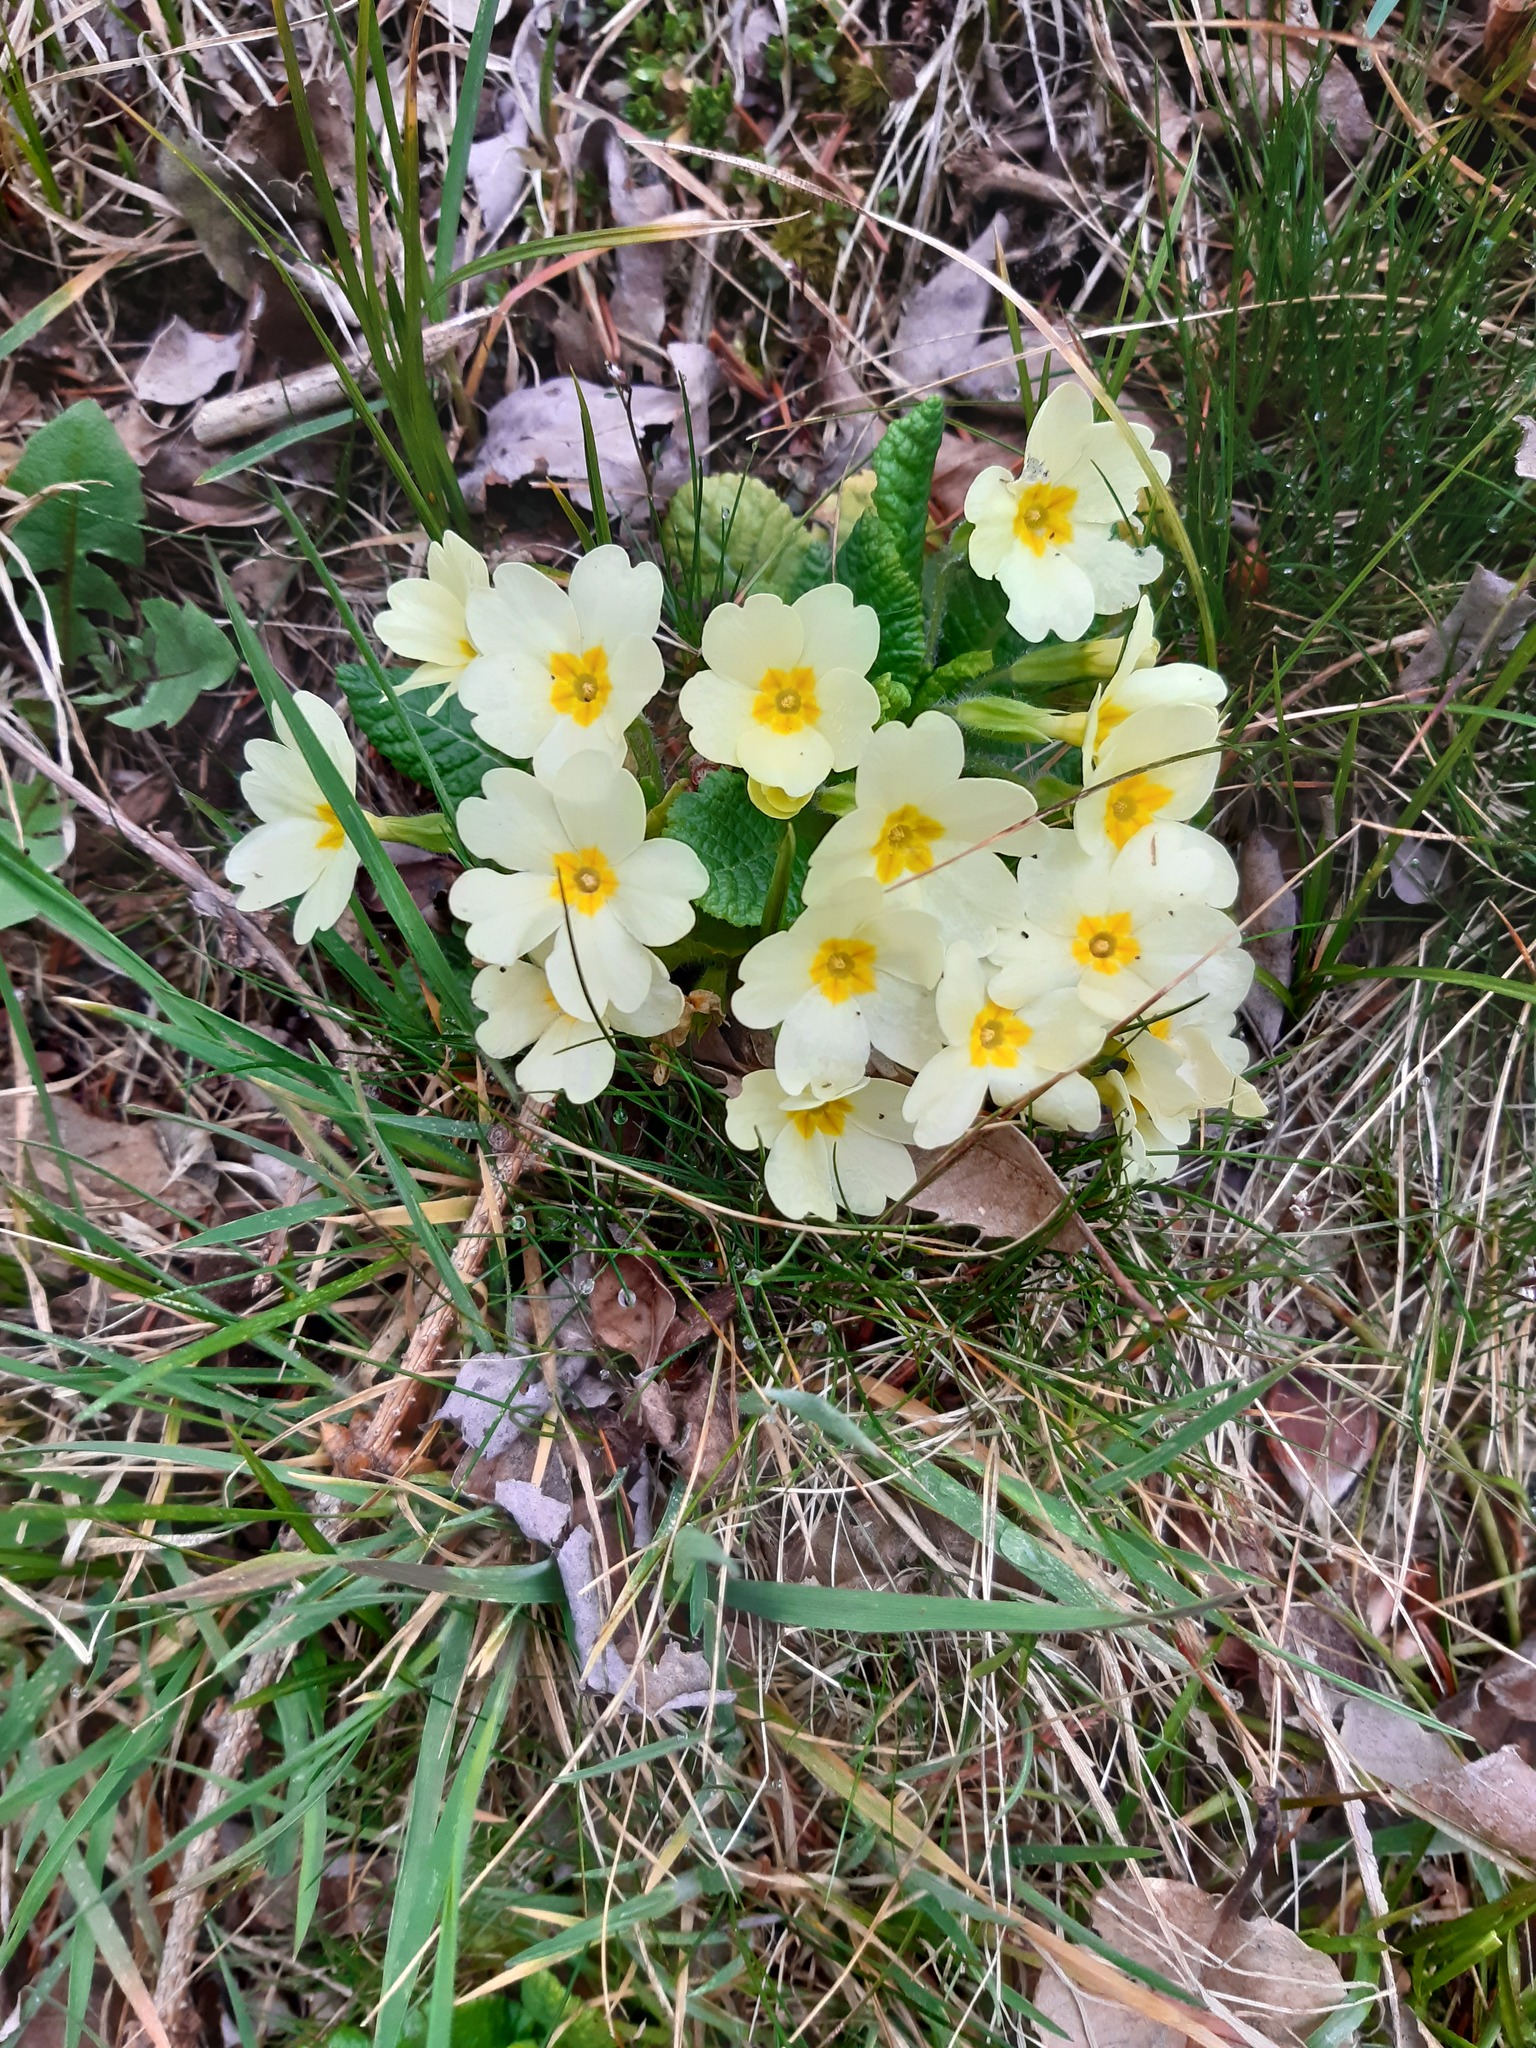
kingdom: Plantae
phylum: Tracheophyta
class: Magnoliopsida
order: Ericales
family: Primulaceae
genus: Primula
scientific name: Primula vulgaris
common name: Primrose
